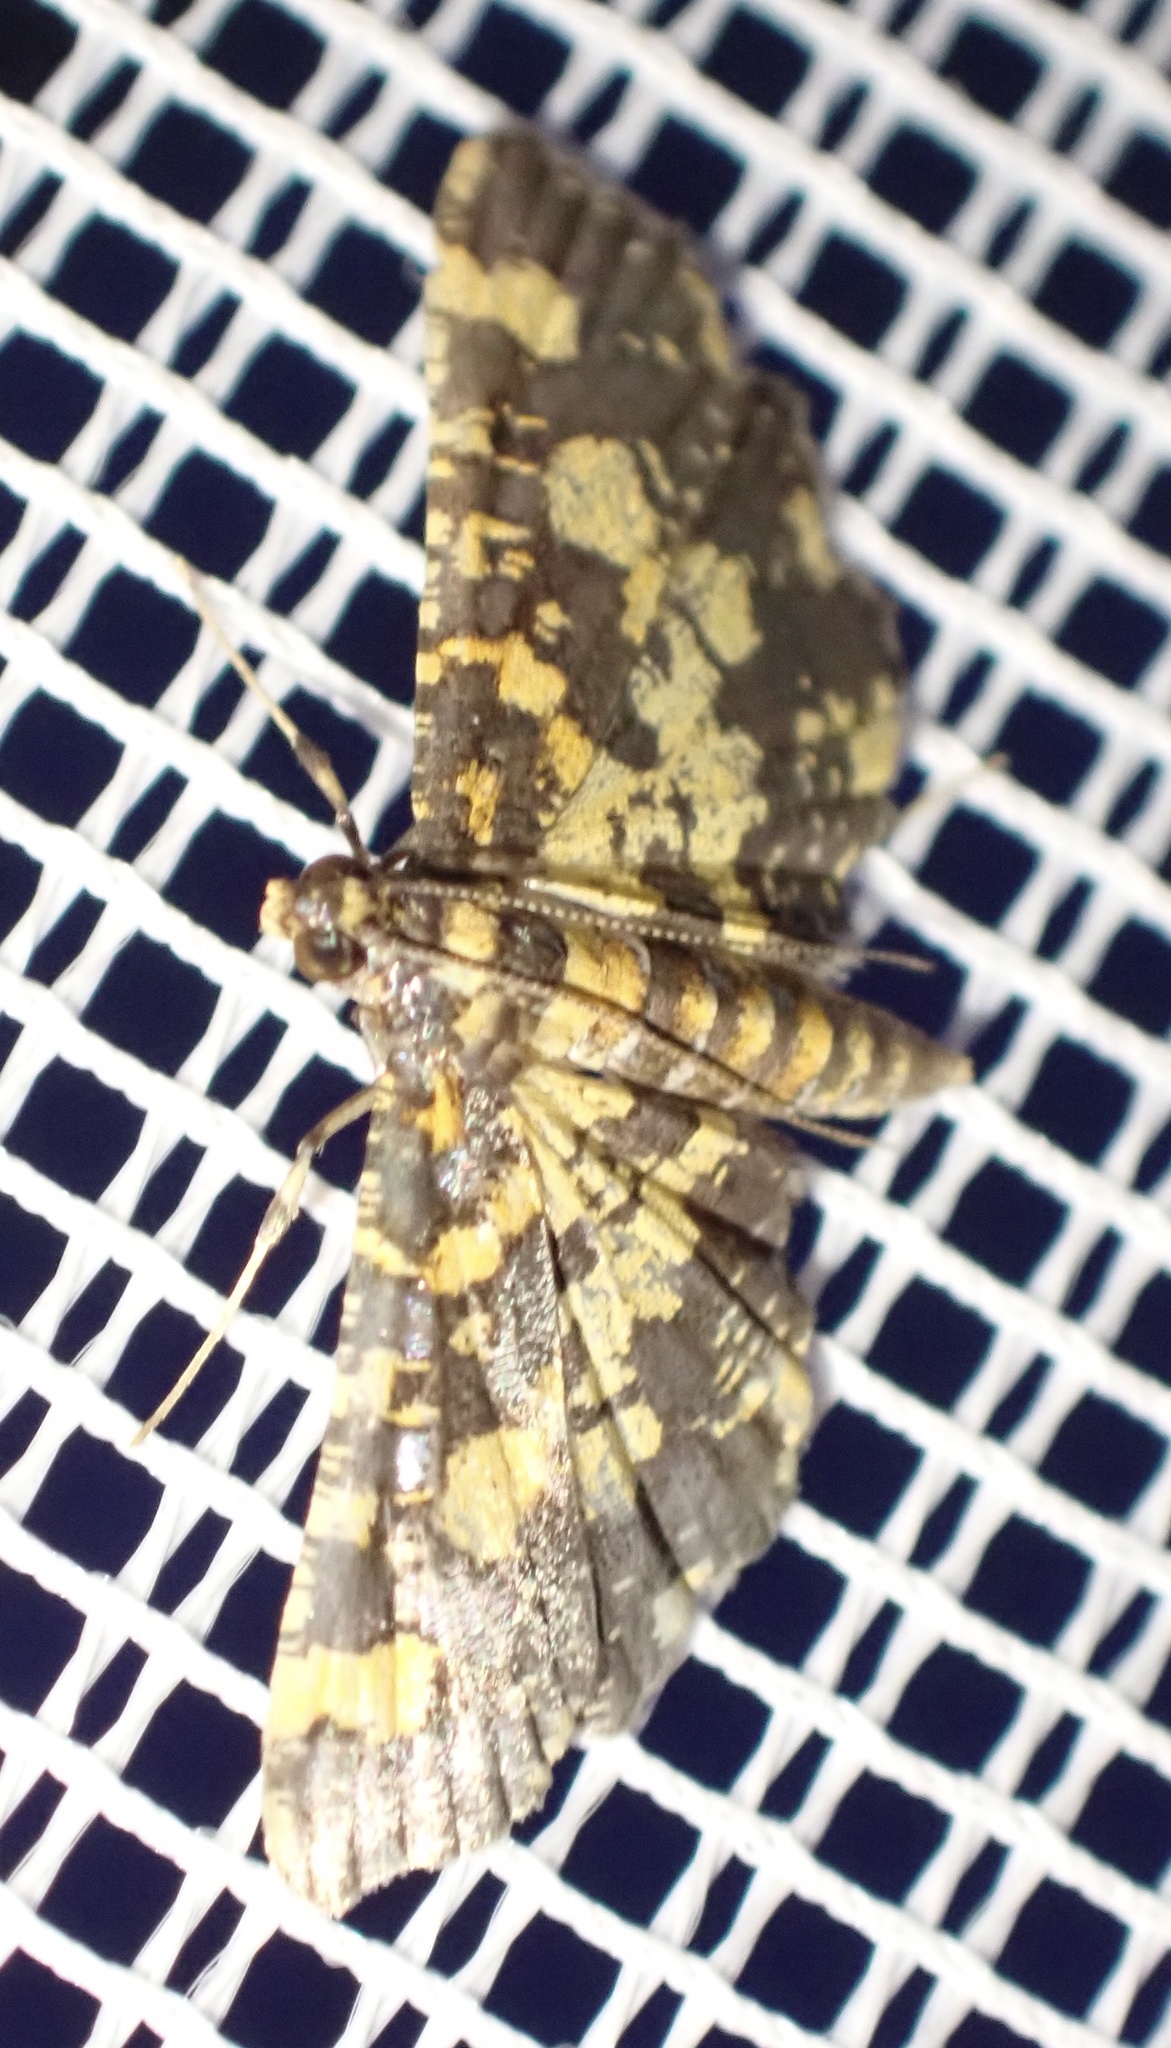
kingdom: Animalia
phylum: Arthropoda
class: Insecta
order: Lepidoptera
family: Crambidae
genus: Eurrhyparodes
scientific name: Eurrhyparodes bracteolalis
